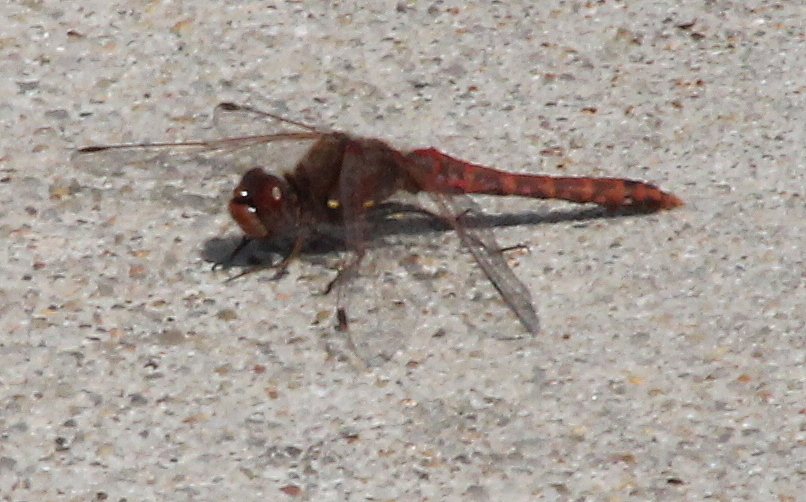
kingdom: Animalia
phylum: Arthropoda
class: Insecta
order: Odonata
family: Libellulidae
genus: Sympetrum
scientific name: Sympetrum corruptum
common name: Variegated meadowhawk
